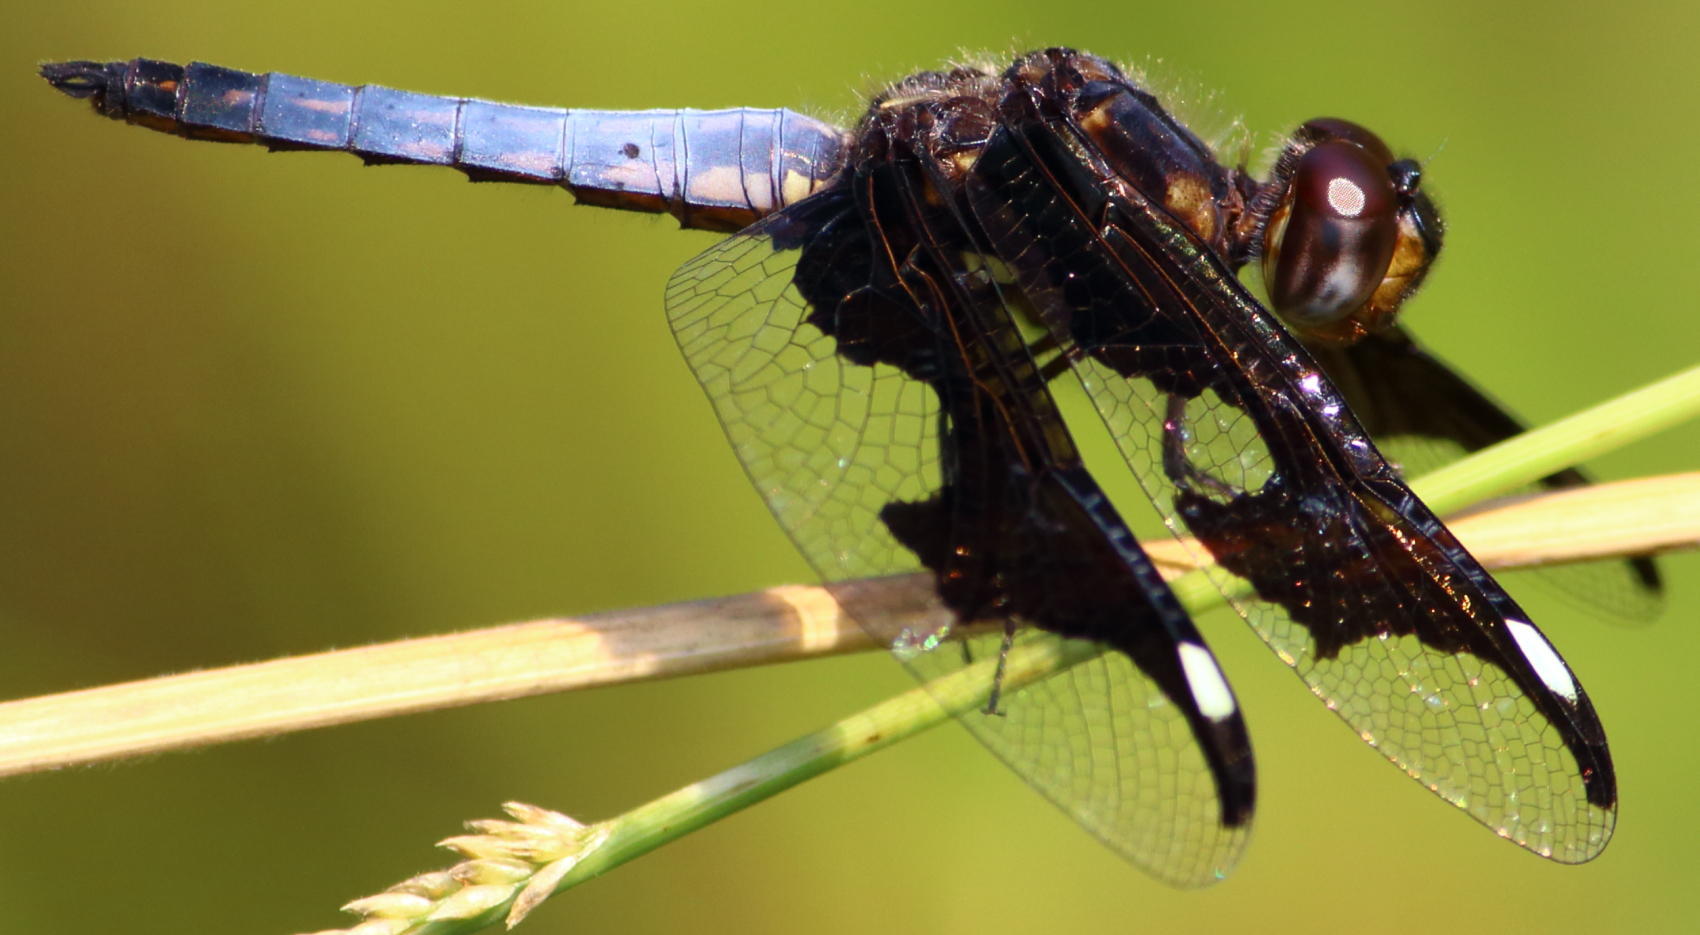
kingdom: Animalia
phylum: Arthropoda
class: Insecta
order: Odonata
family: Libellulidae
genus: Palpopleura
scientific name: Palpopleura portia
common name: Portia widow
